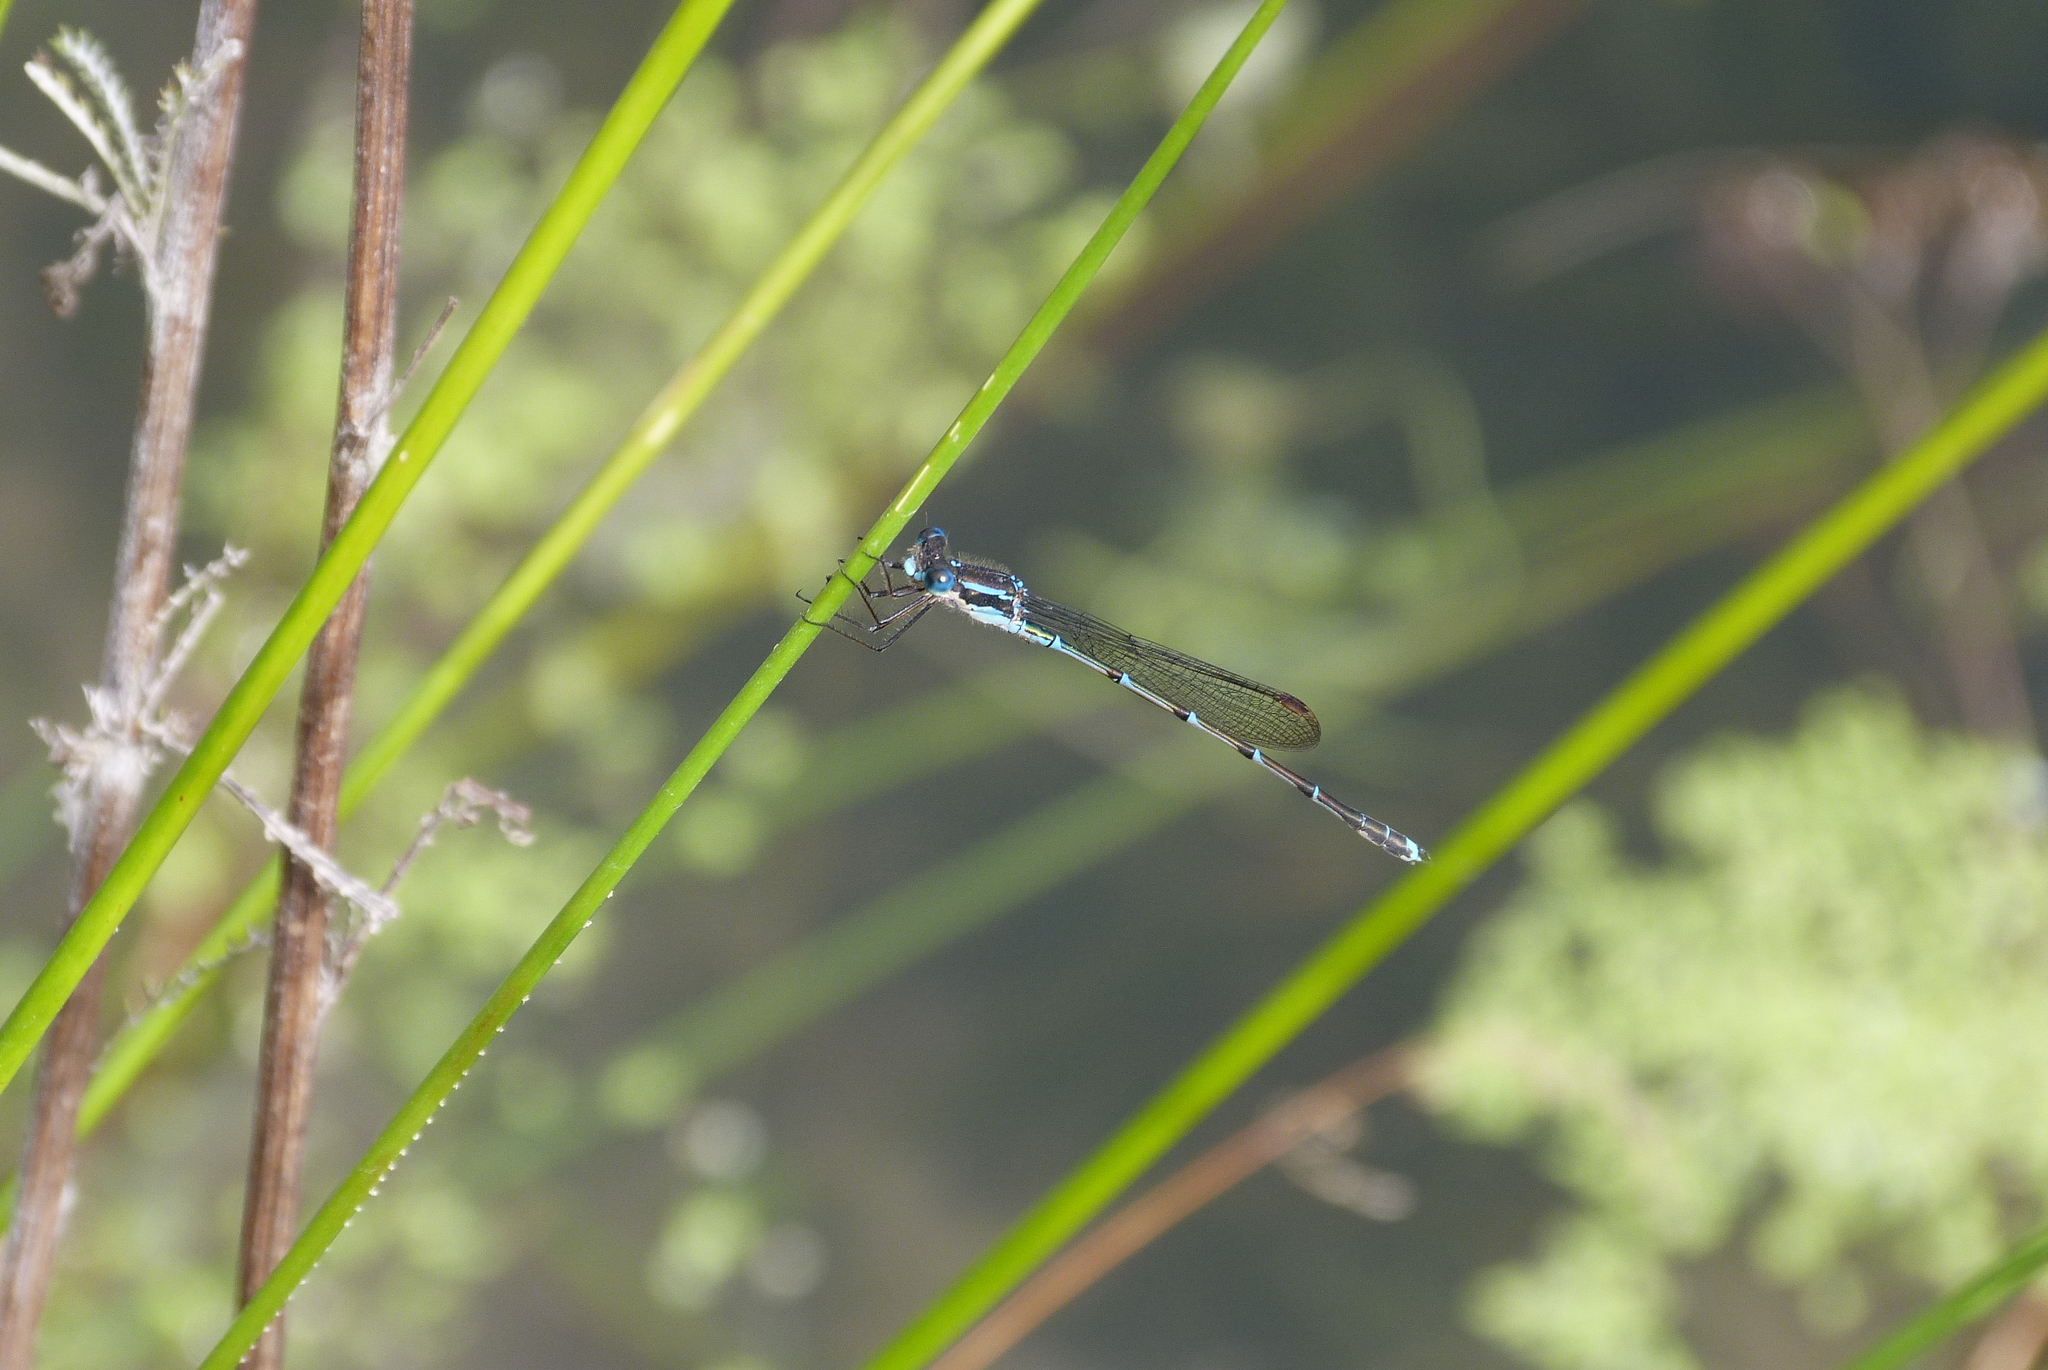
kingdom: Animalia
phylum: Arthropoda
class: Insecta
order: Odonata
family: Lestidae
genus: Austrolestes
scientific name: Austrolestes colensonis
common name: Blue damselfly
